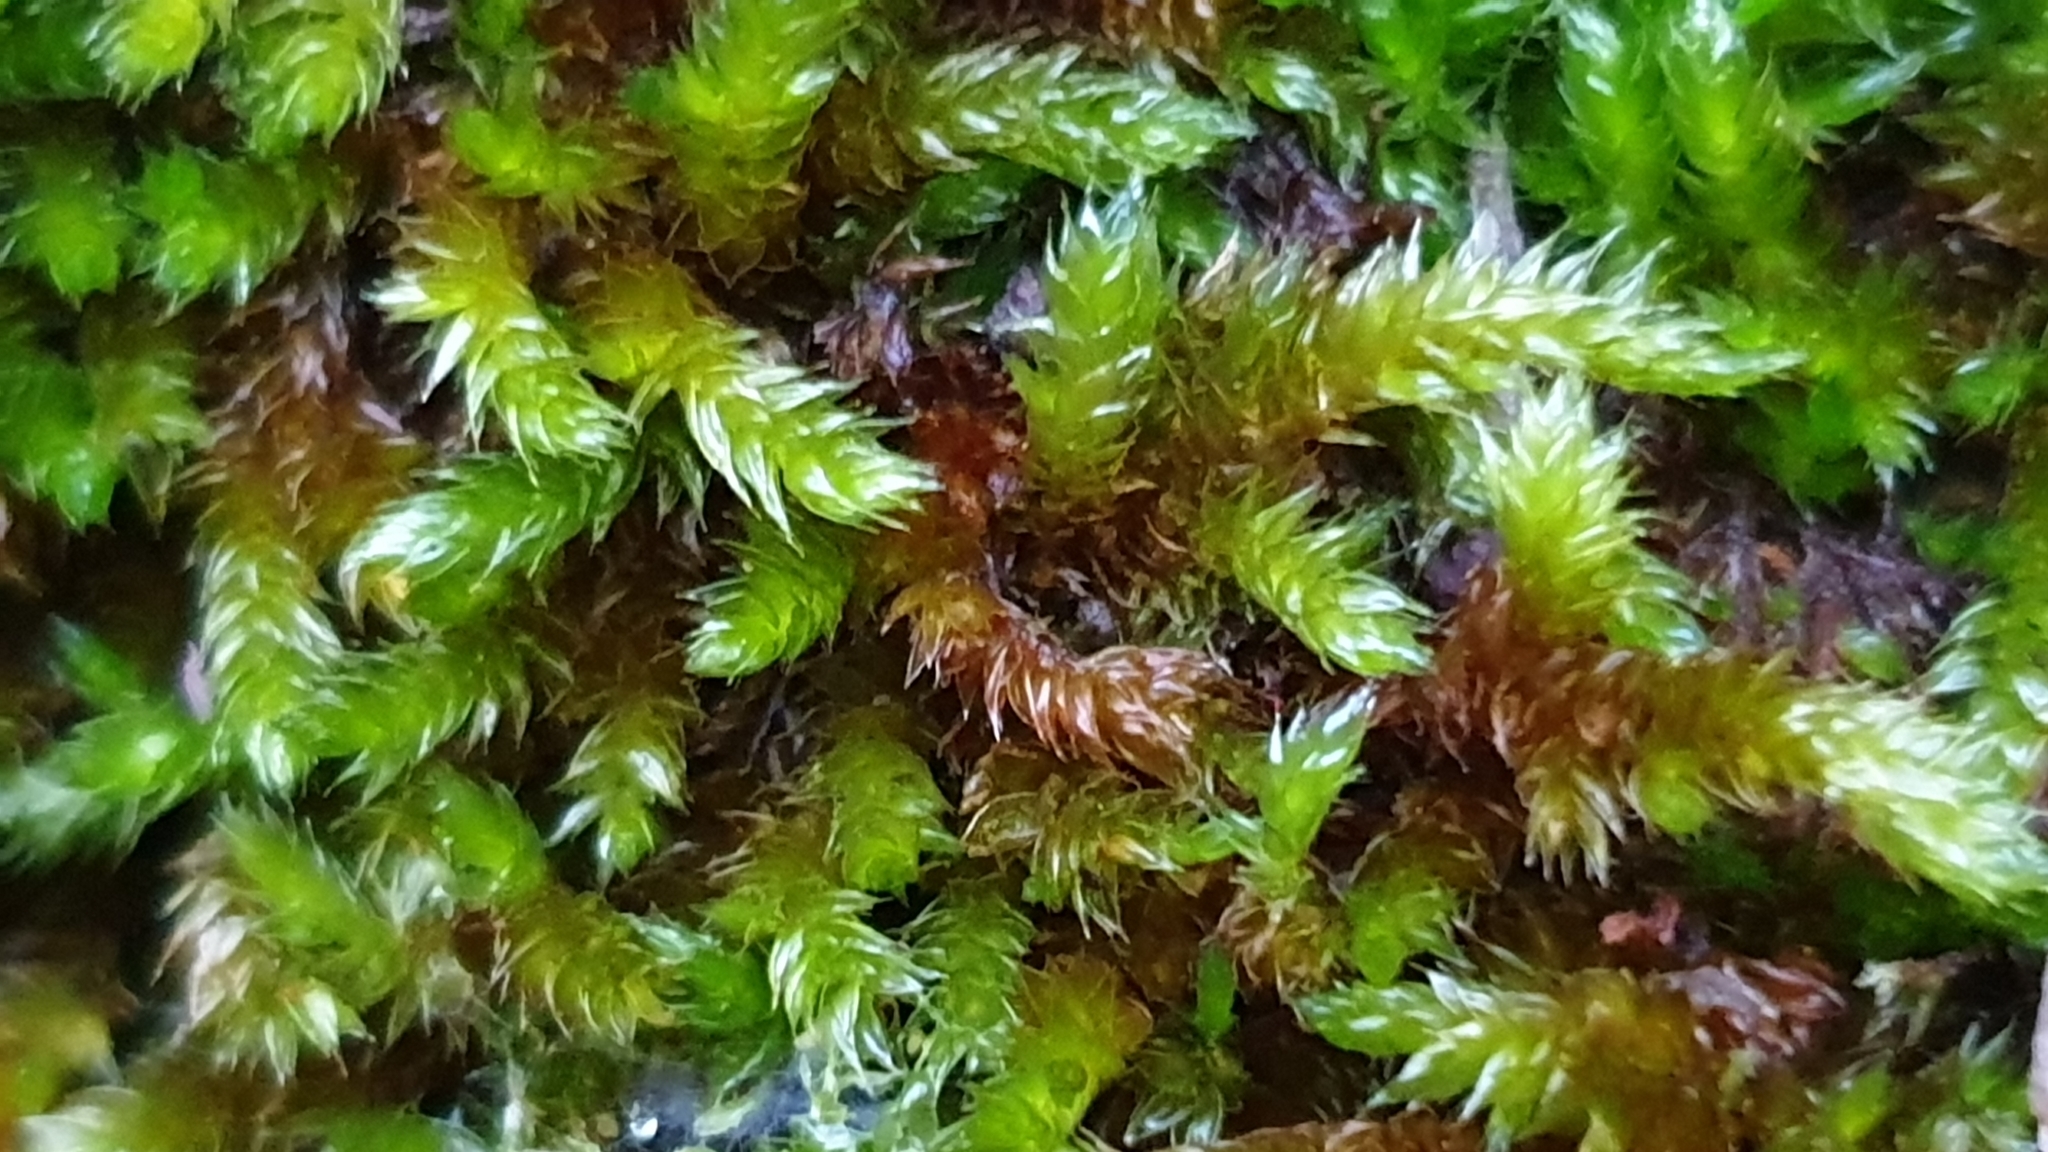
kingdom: Plantae
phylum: Bryophyta
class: Bryopsida
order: Hypnales
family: Sematophyllaceae
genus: Sematophyllum
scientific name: Sematophyllum homomallum
